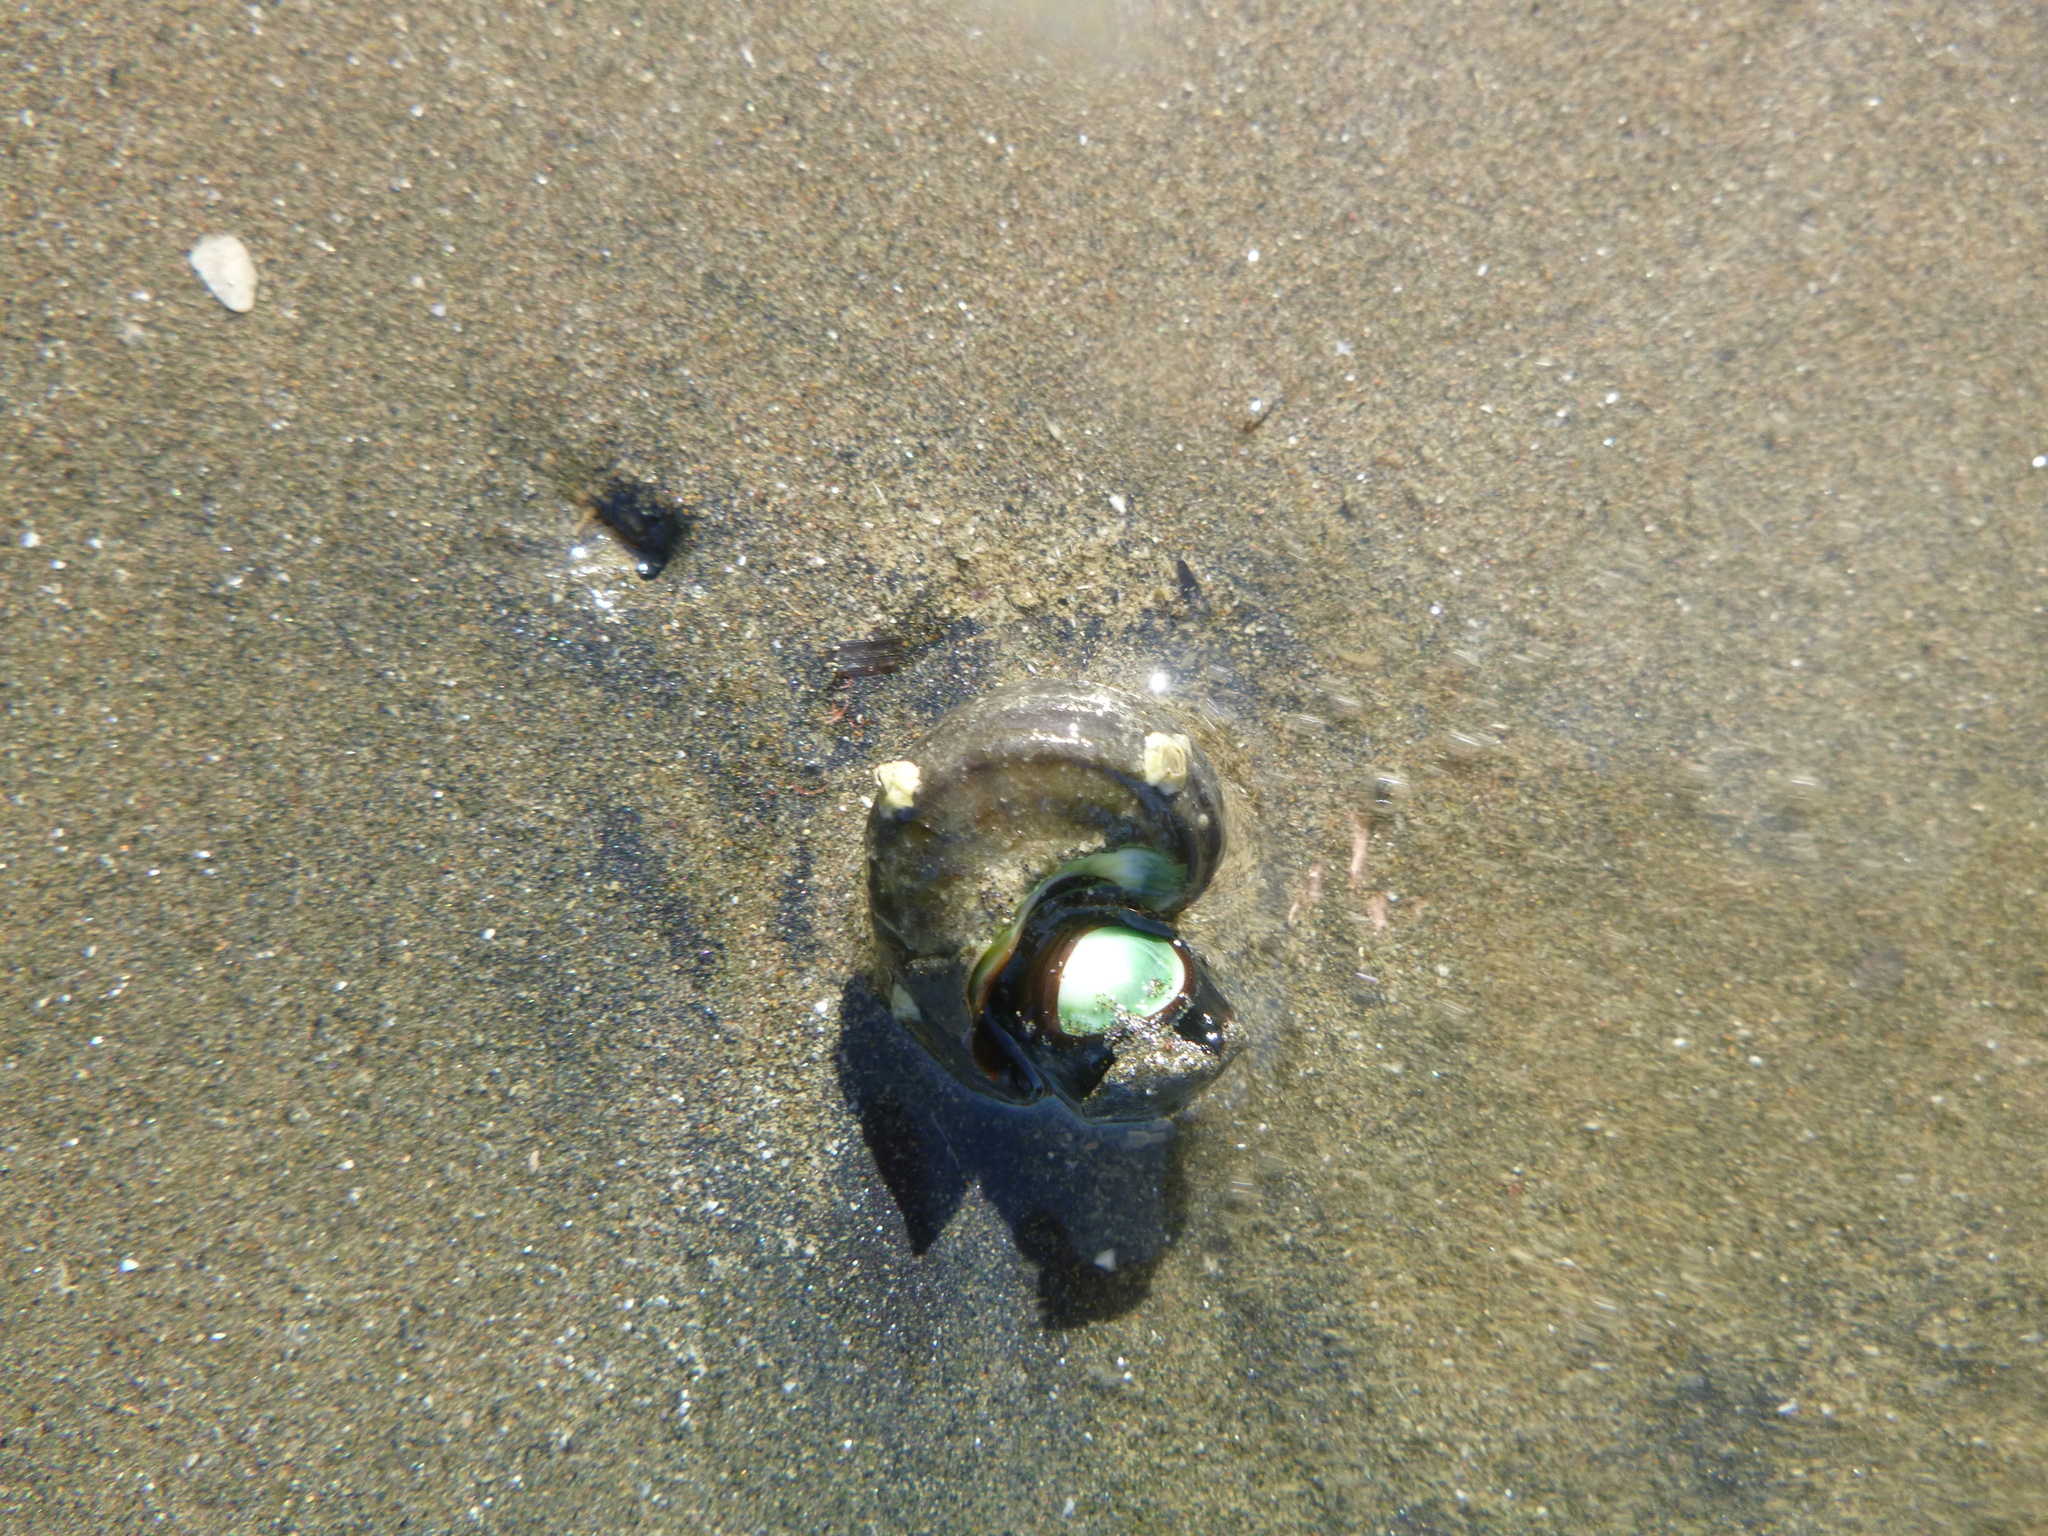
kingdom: Animalia
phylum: Mollusca
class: Gastropoda
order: Trochida
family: Turbinidae
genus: Lunella
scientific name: Lunella smaragda
